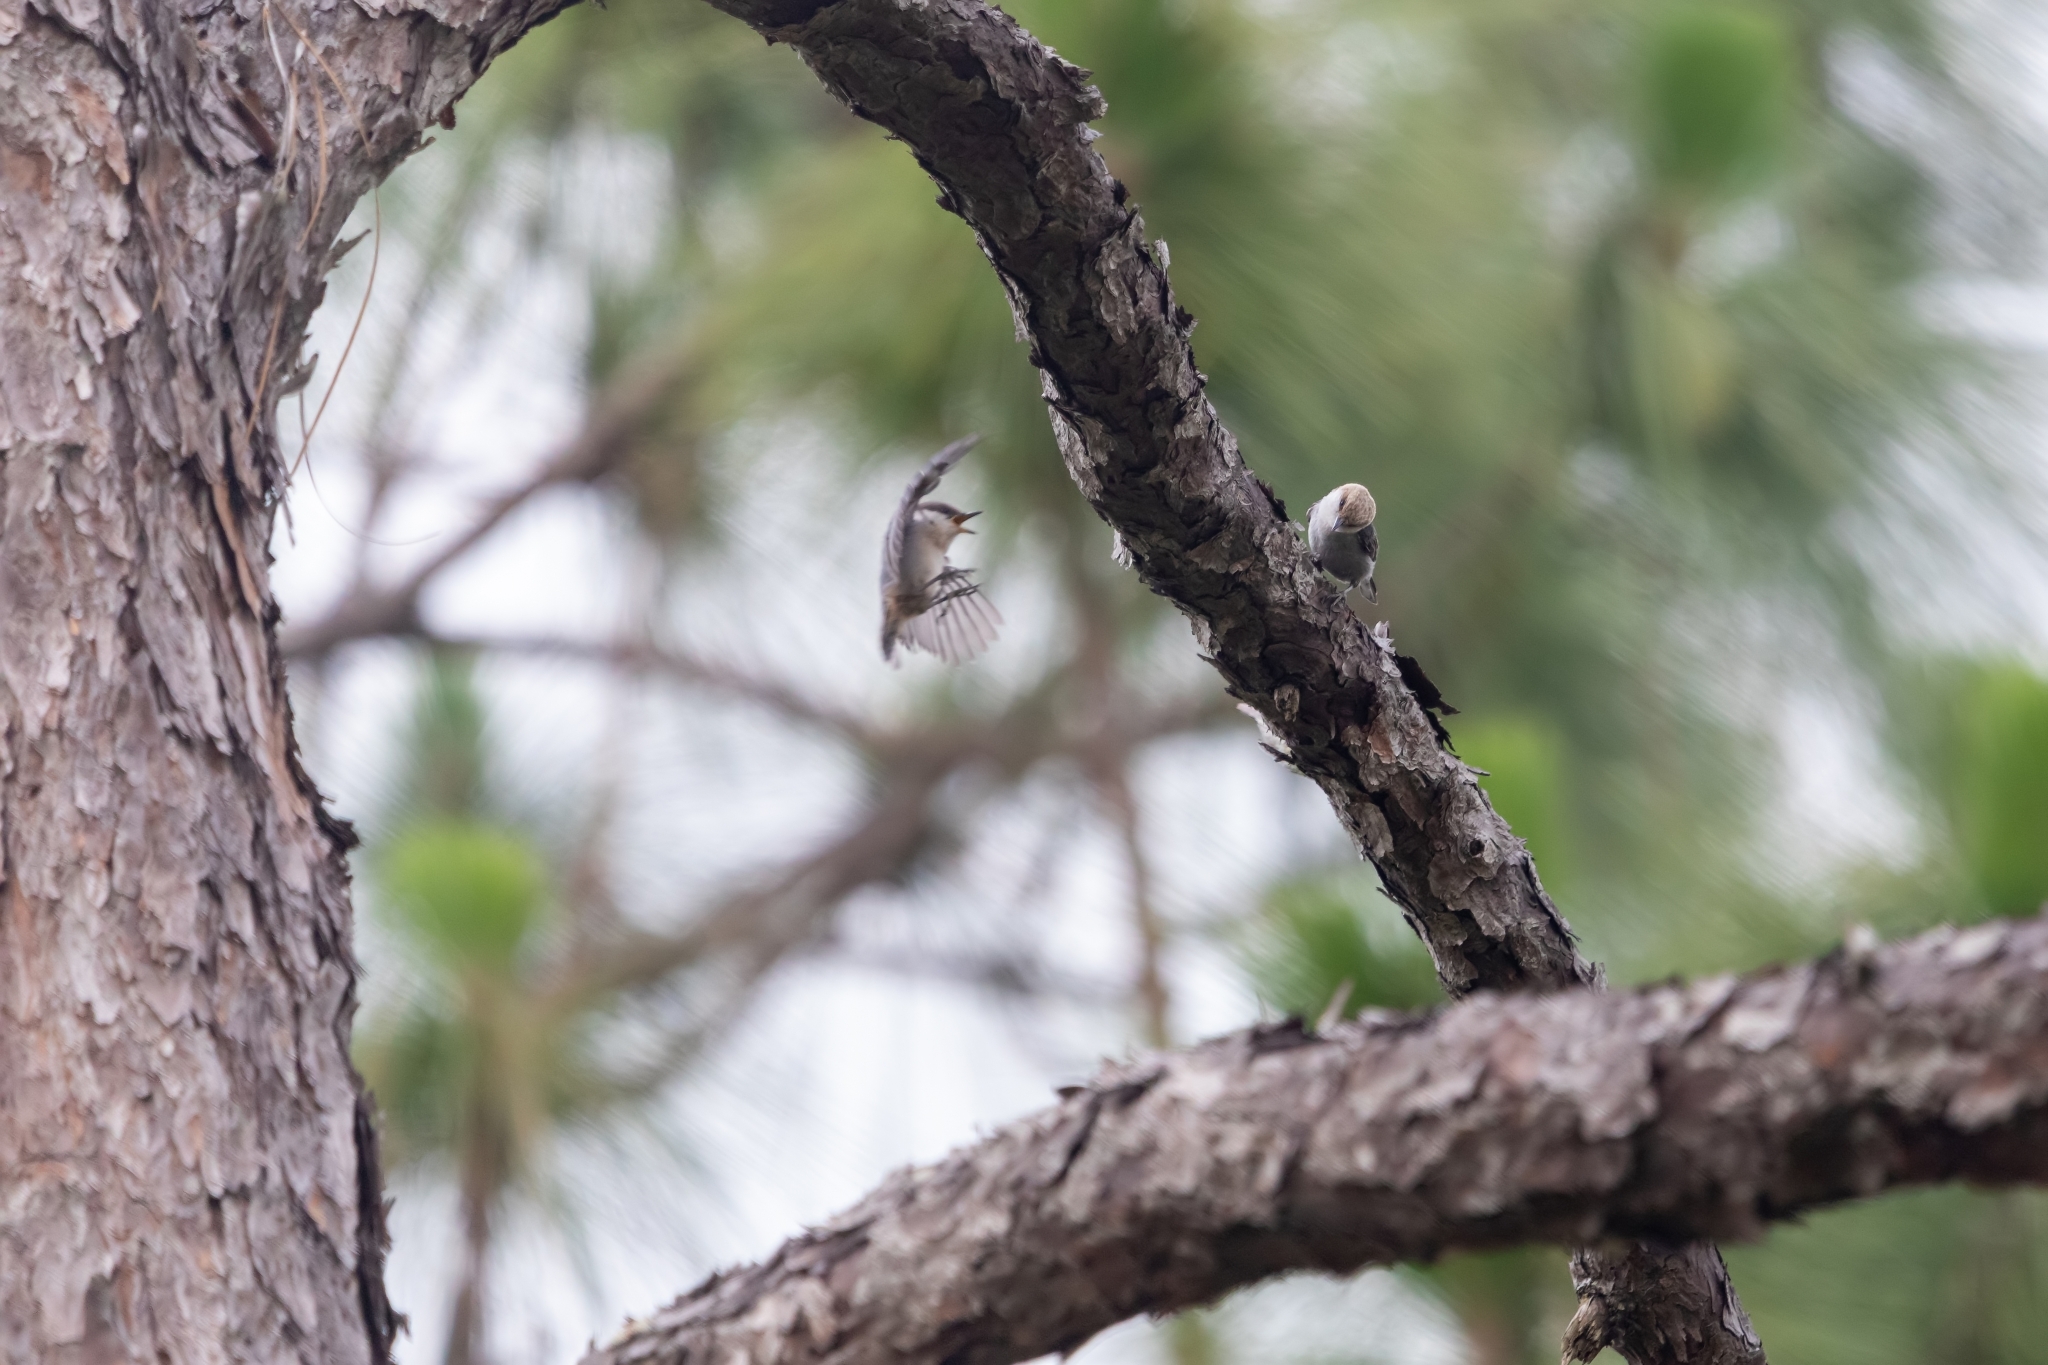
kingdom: Animalia
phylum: Chordata
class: Aves
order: Passeriformes
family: Sittidae
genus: Sitta
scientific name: Sitta pusilla
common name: Brown-headed nuthatch
